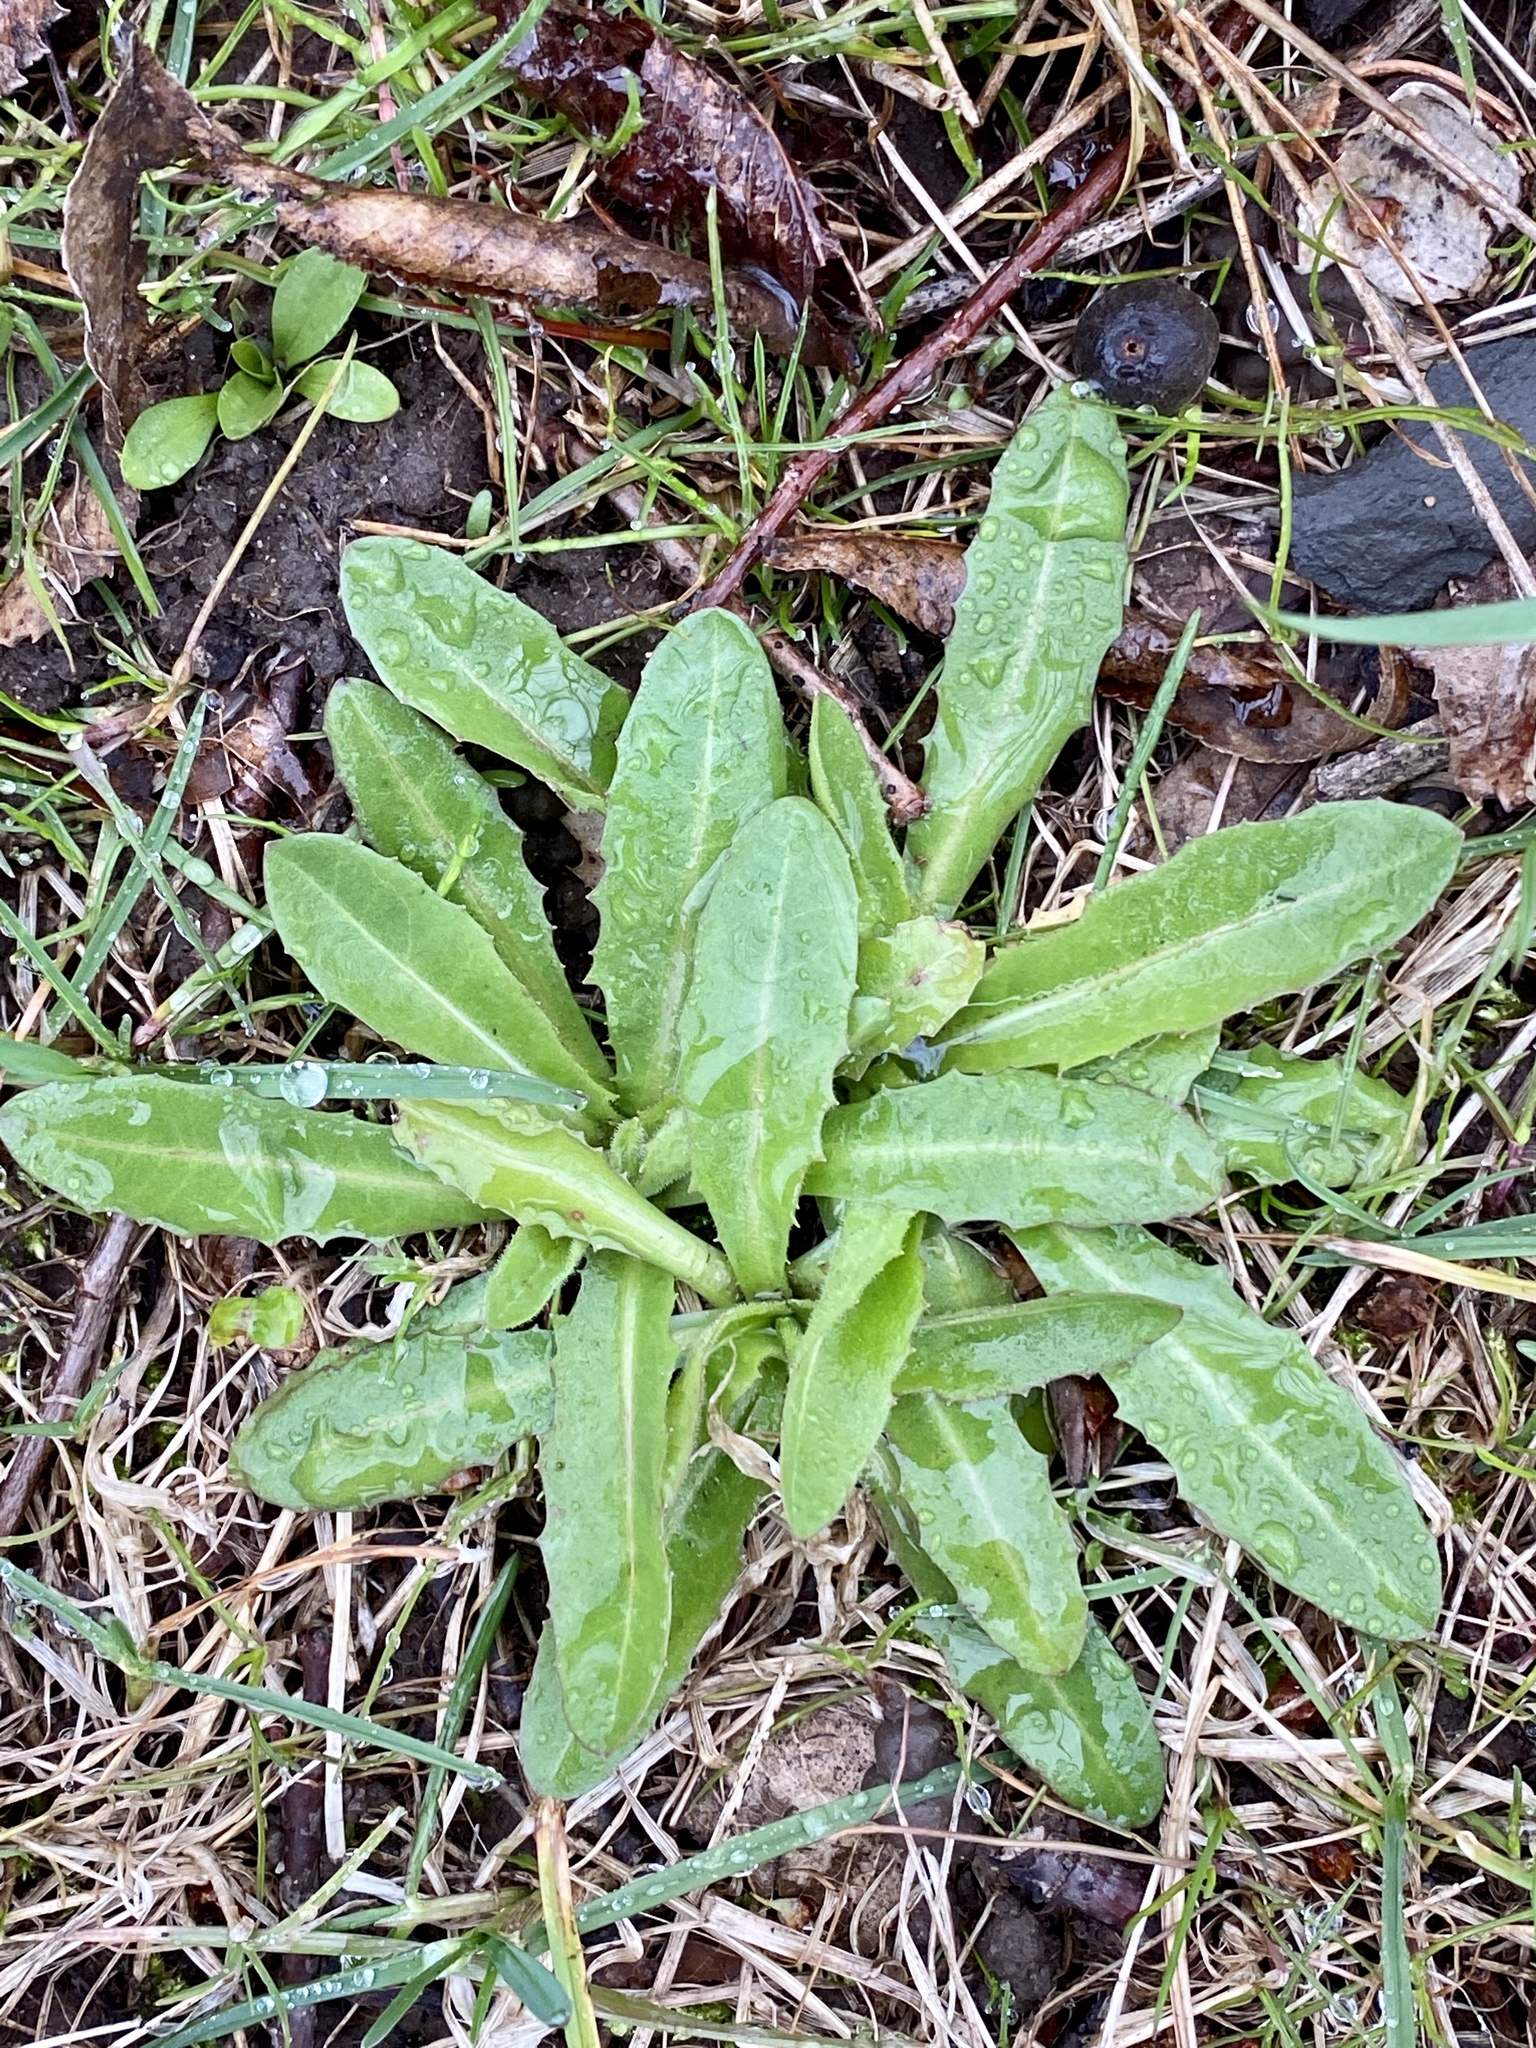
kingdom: Plantae
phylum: Tracheophyta
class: Magnoliopsida
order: Asterales
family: Asteraceae
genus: Cichorium
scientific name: Cichorium intybus
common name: Chicory
